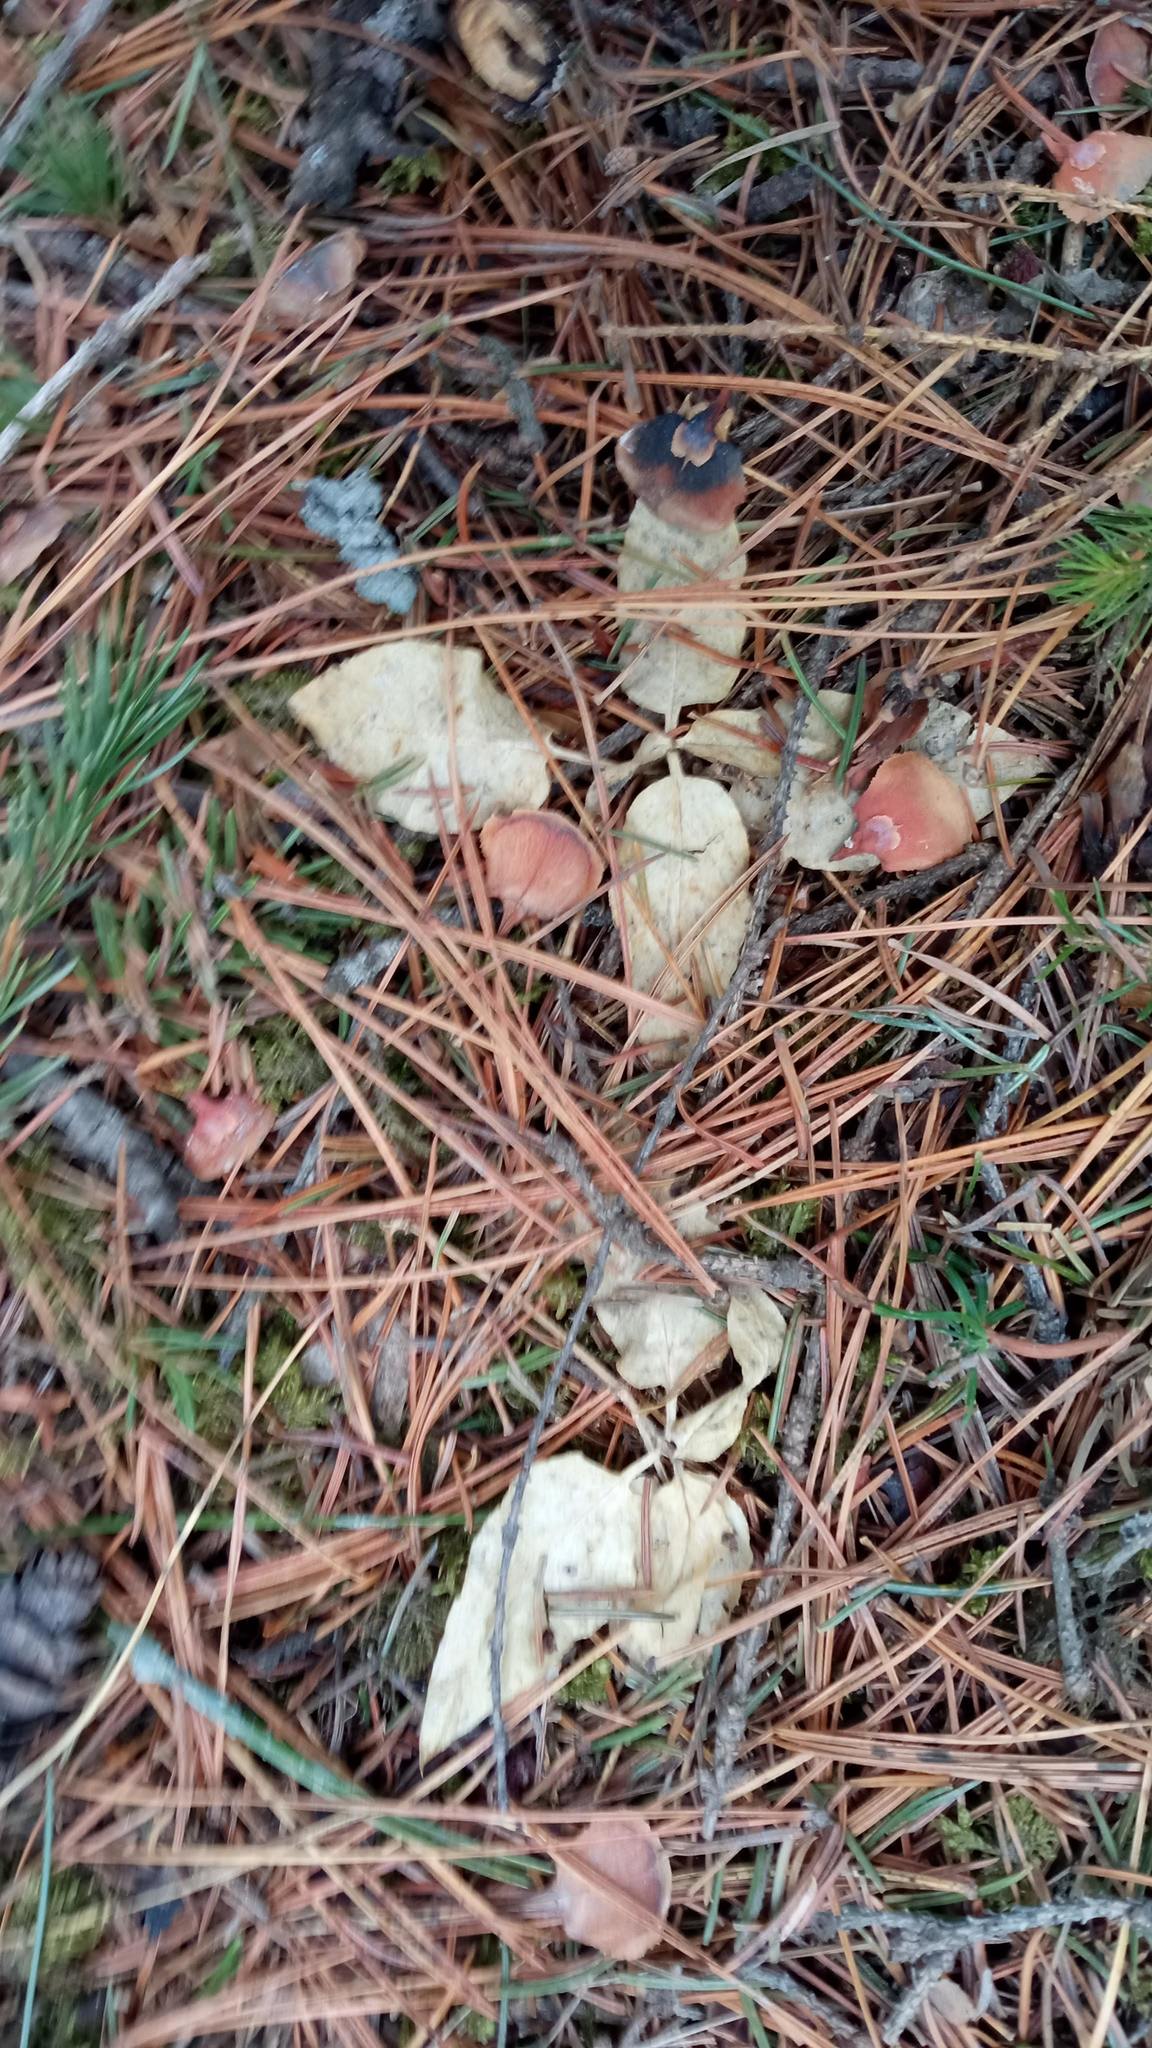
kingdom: Plantae
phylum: Tracheophyta
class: Magnoliopsida
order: Caryophyllales
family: Caryophyllaceae
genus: Stellaria
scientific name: Stellaria bungeana
